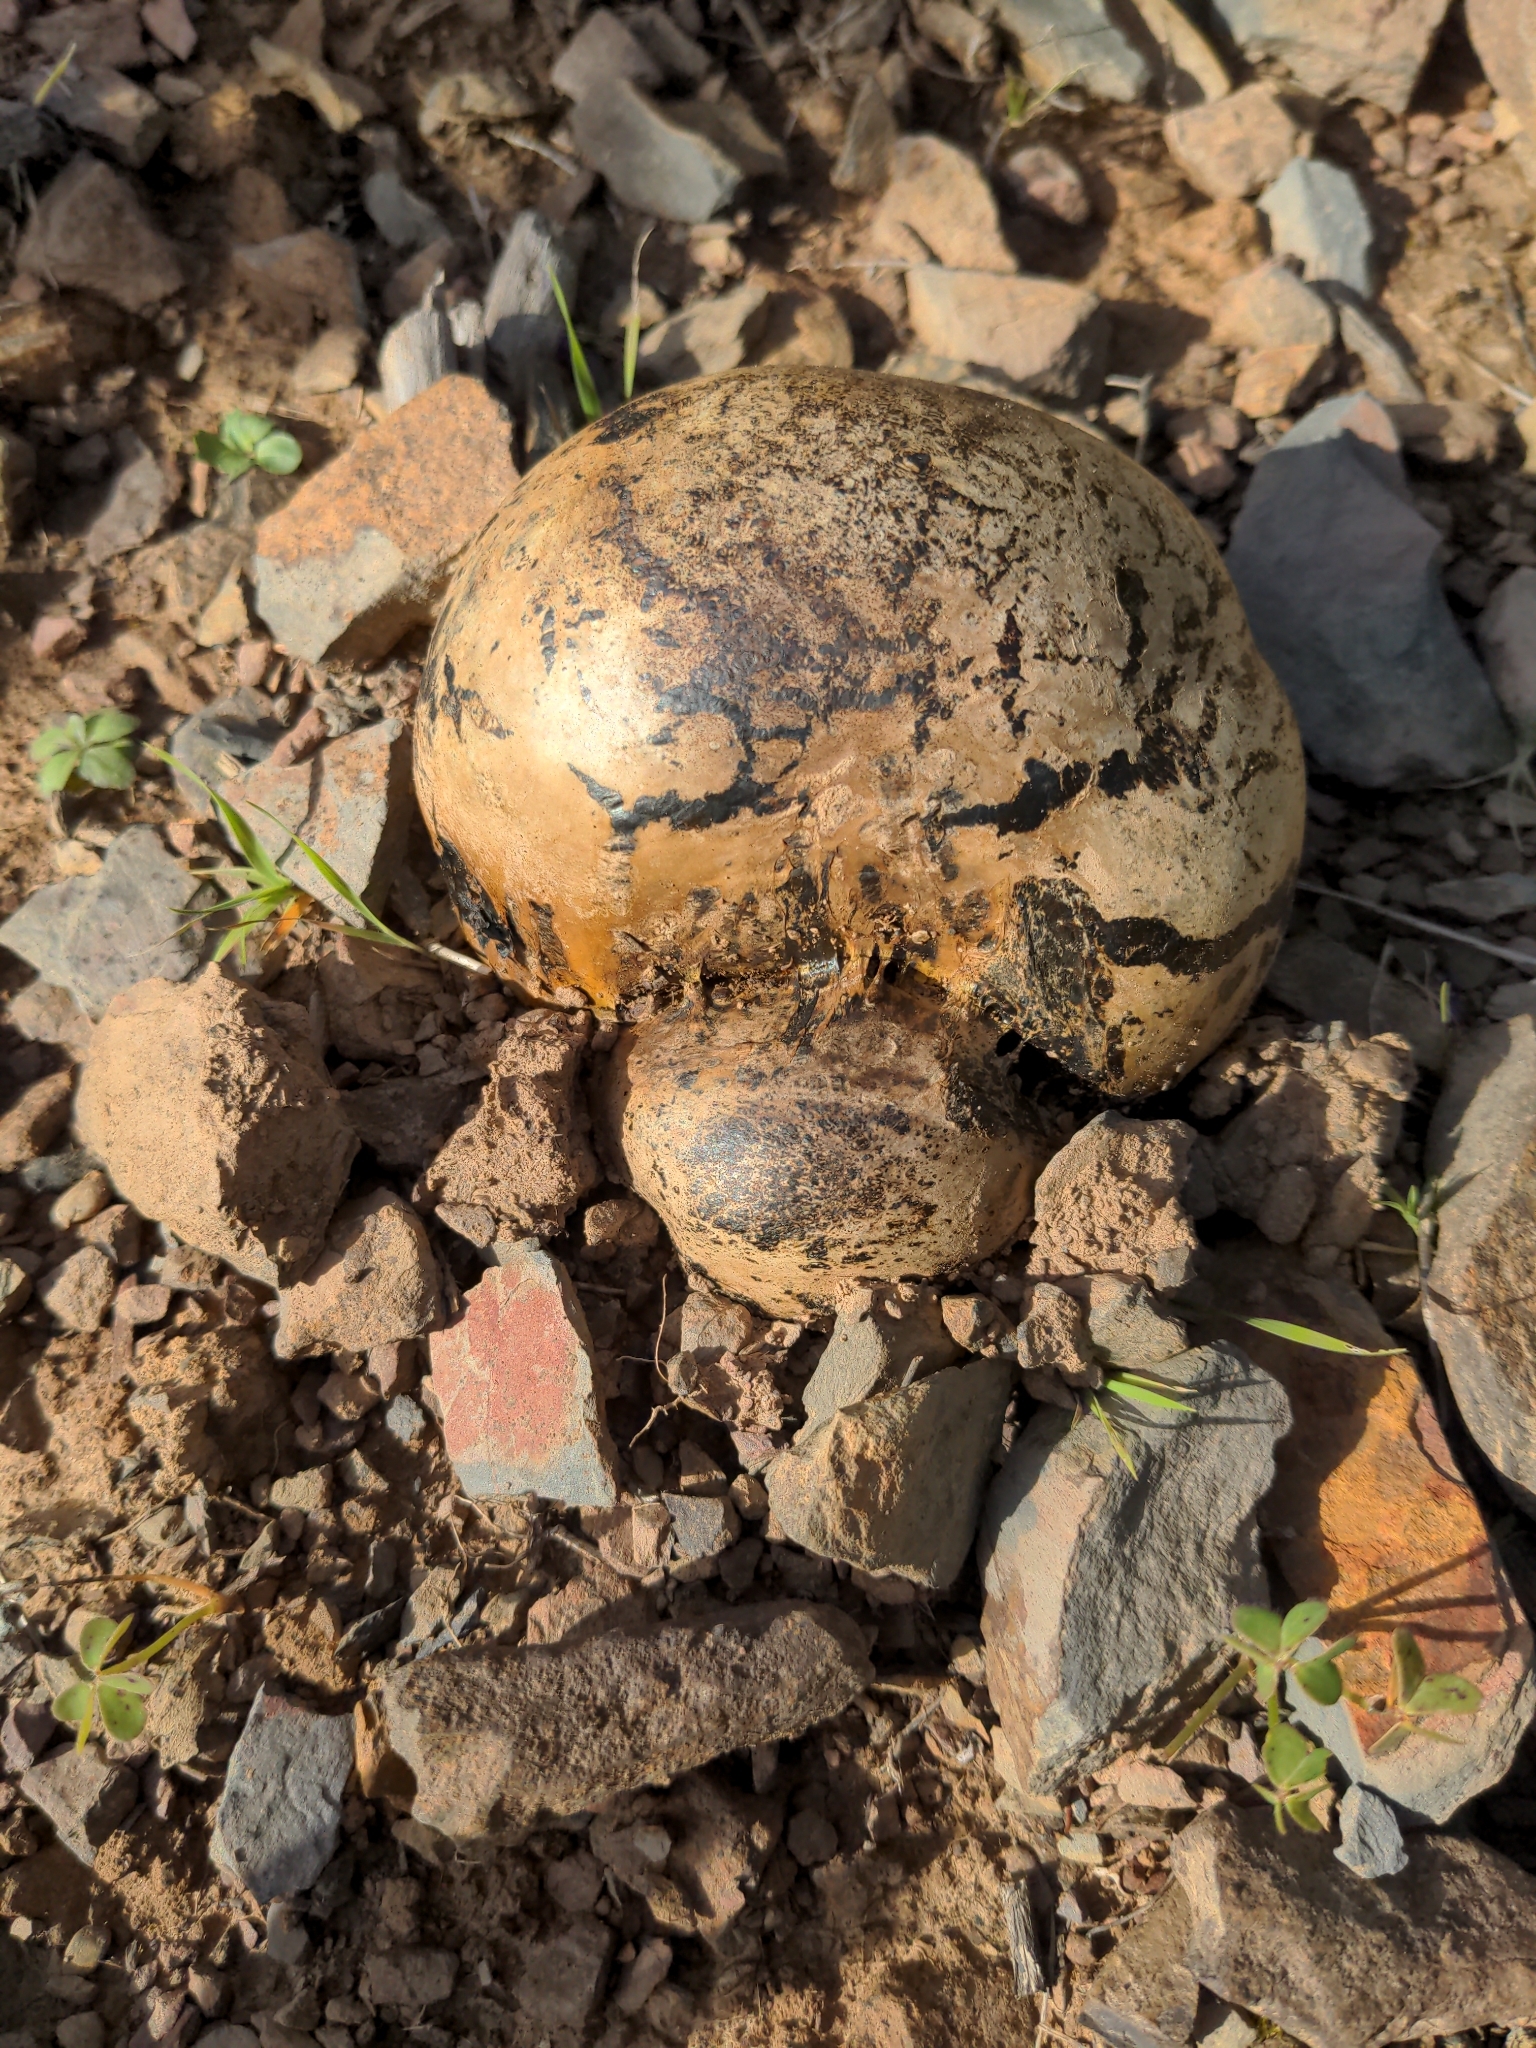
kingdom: Fungi
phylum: Basidiomycota
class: Agaricomycetes
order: Boletales
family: Sclerodermataceae
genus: Pisolithus
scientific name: Pisolithus arhizus
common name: Dyeball
